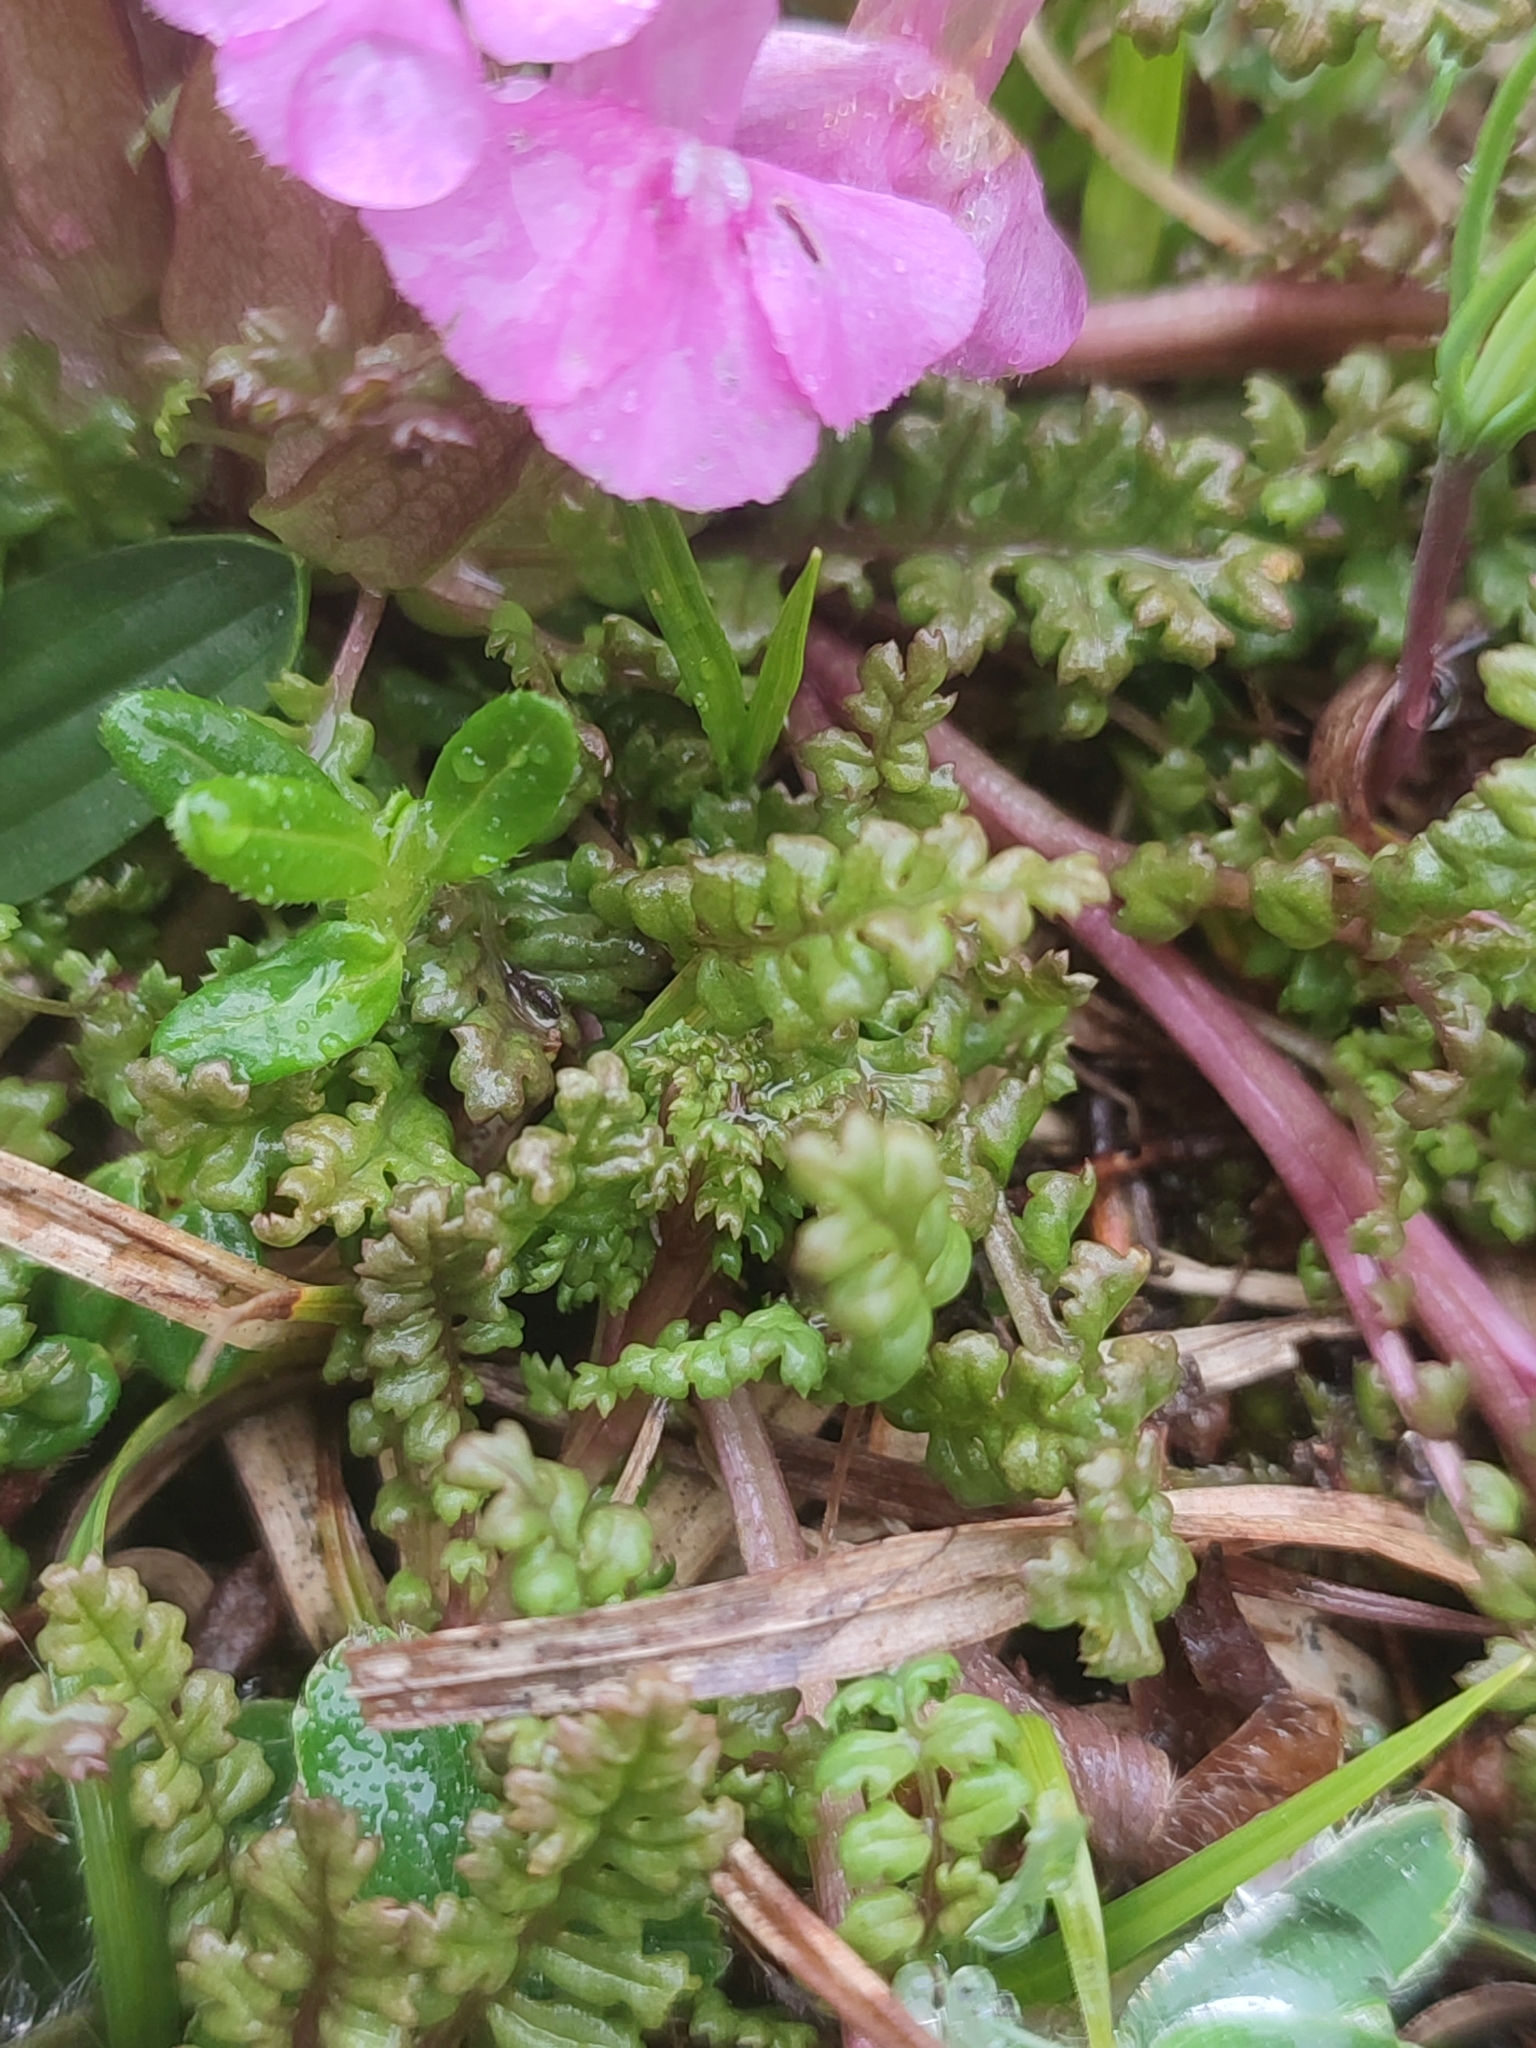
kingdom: Plantae
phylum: Tracheophyta
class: Magnoliopsida
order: Lamiales
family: Orobanchaceae
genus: Pedicularis
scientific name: Pedicularis sylvatica
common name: Lousewort
